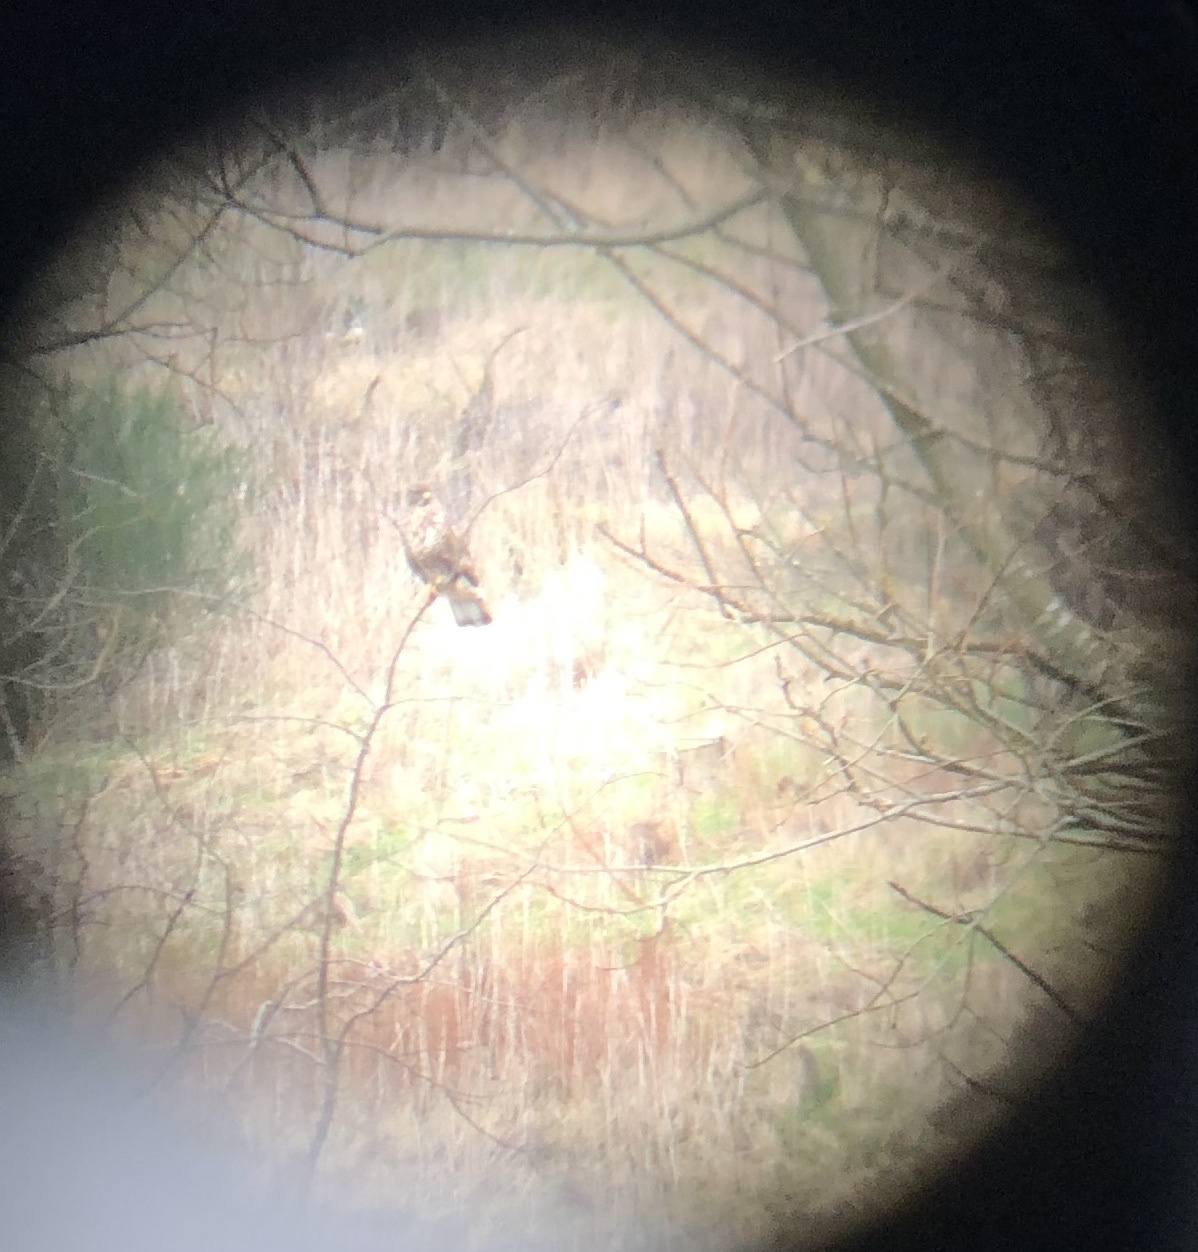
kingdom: Animalia
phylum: Chordata
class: Aves
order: Accipitriformes
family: Accipitridae
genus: Buteo
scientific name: Buteo buteo
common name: Common buzzard
